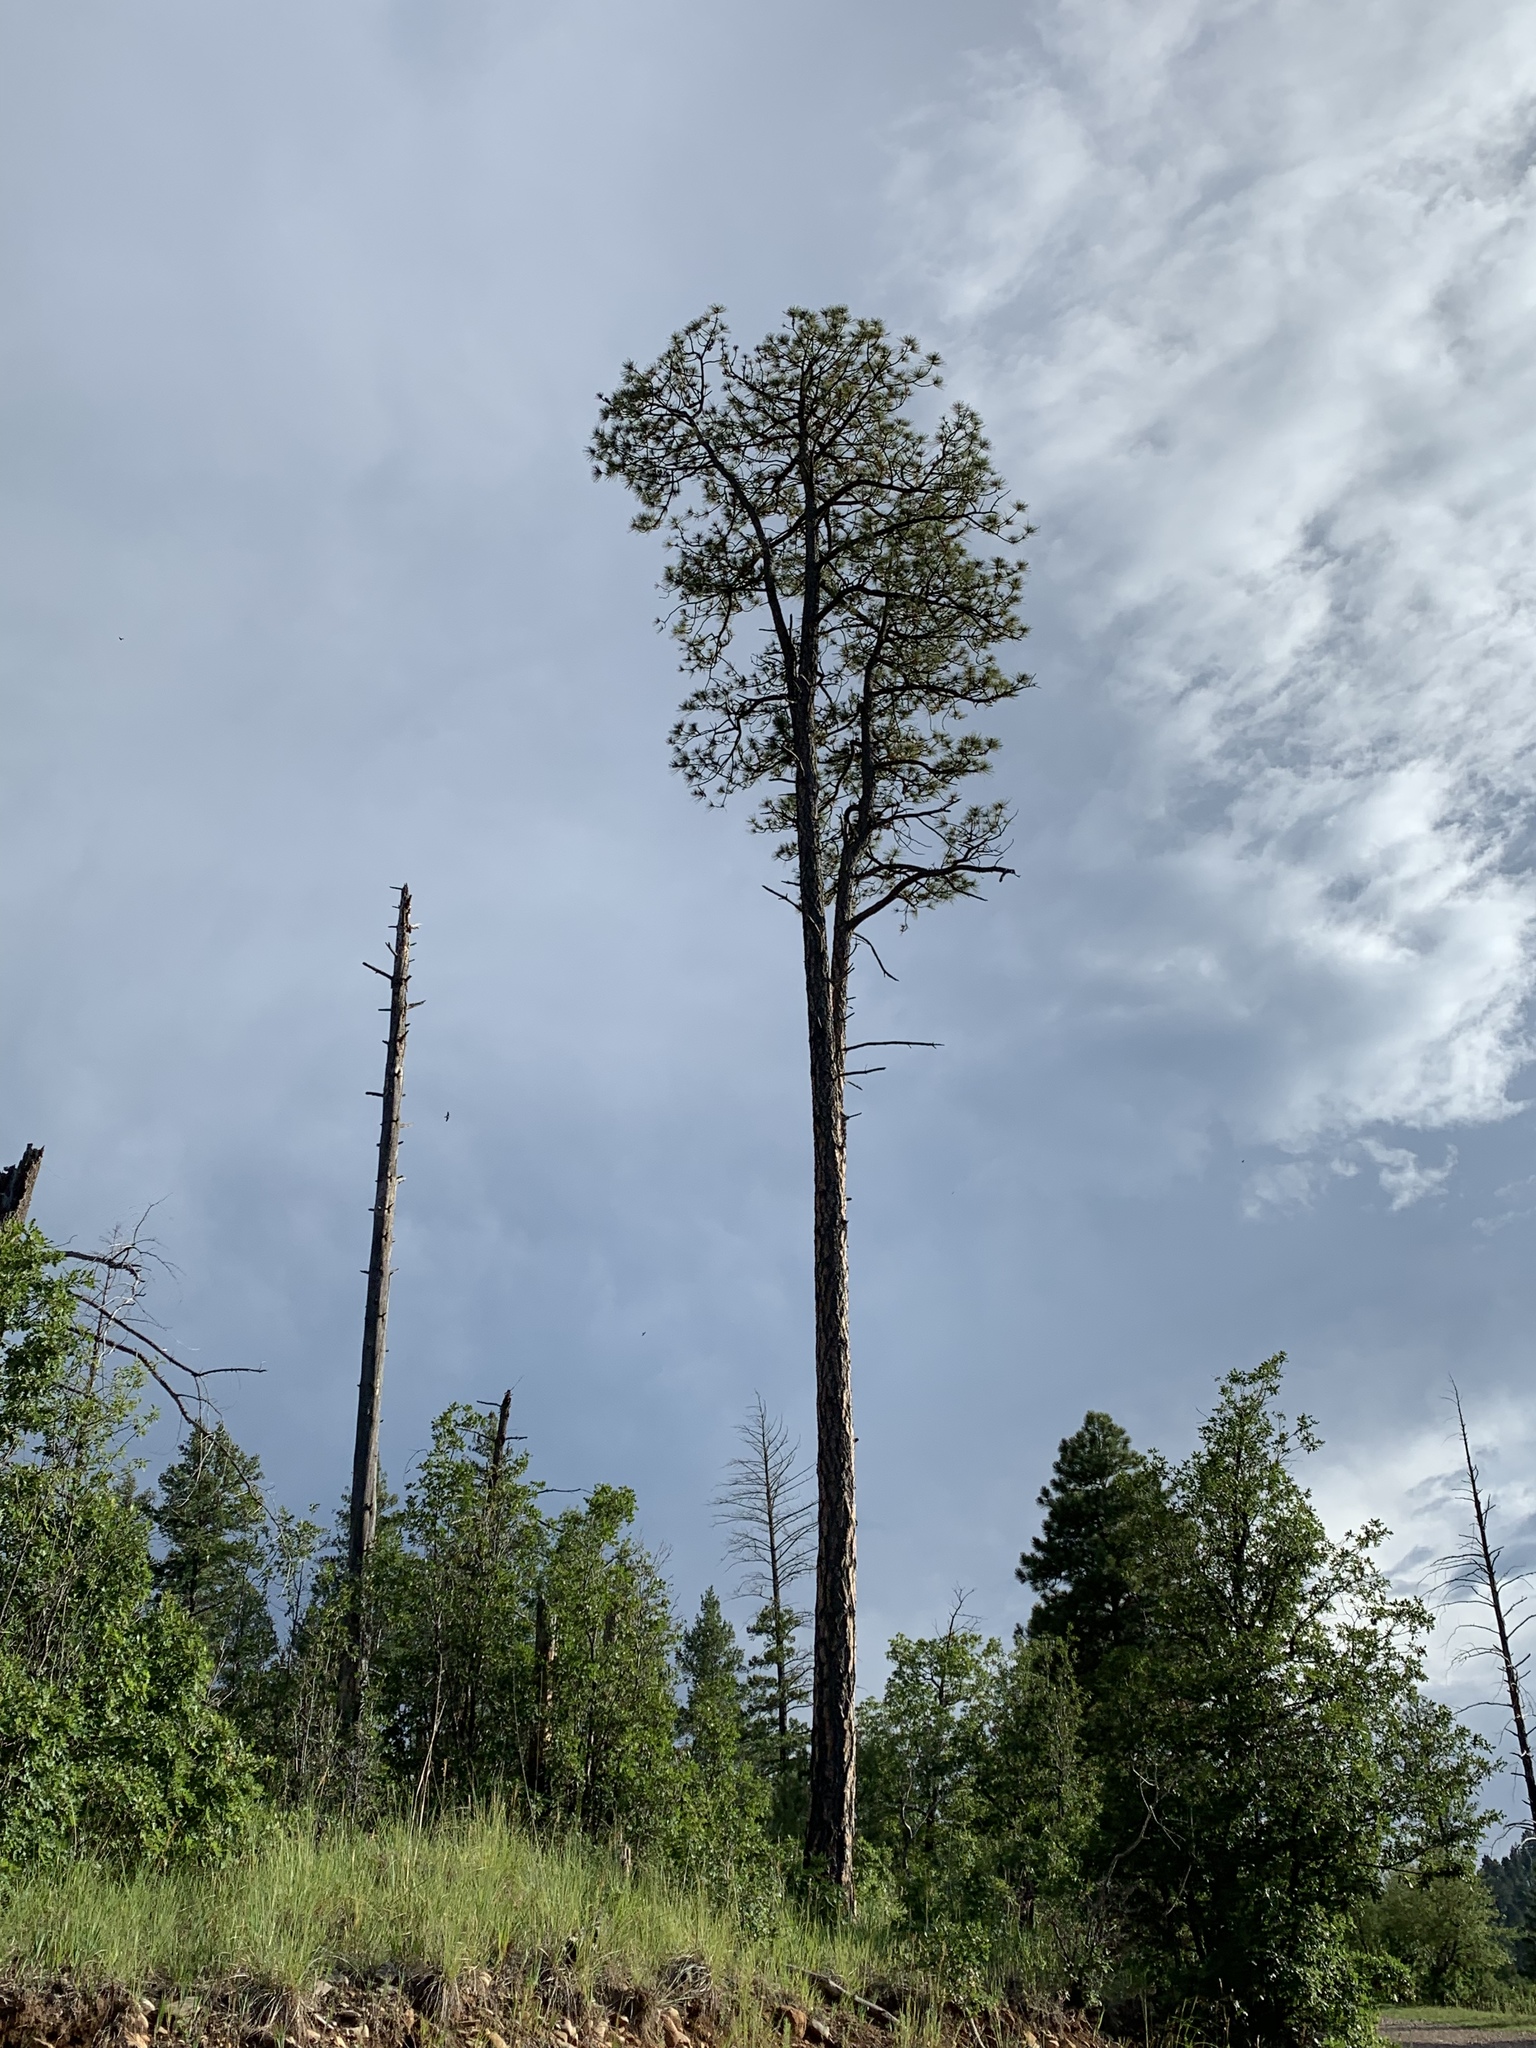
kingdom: Plantae
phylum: Tracheophyta
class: Pinopsida
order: Pinales
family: Pinaceae
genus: Pinus
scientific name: Pinus ponderosa
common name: Western yellow-pine
